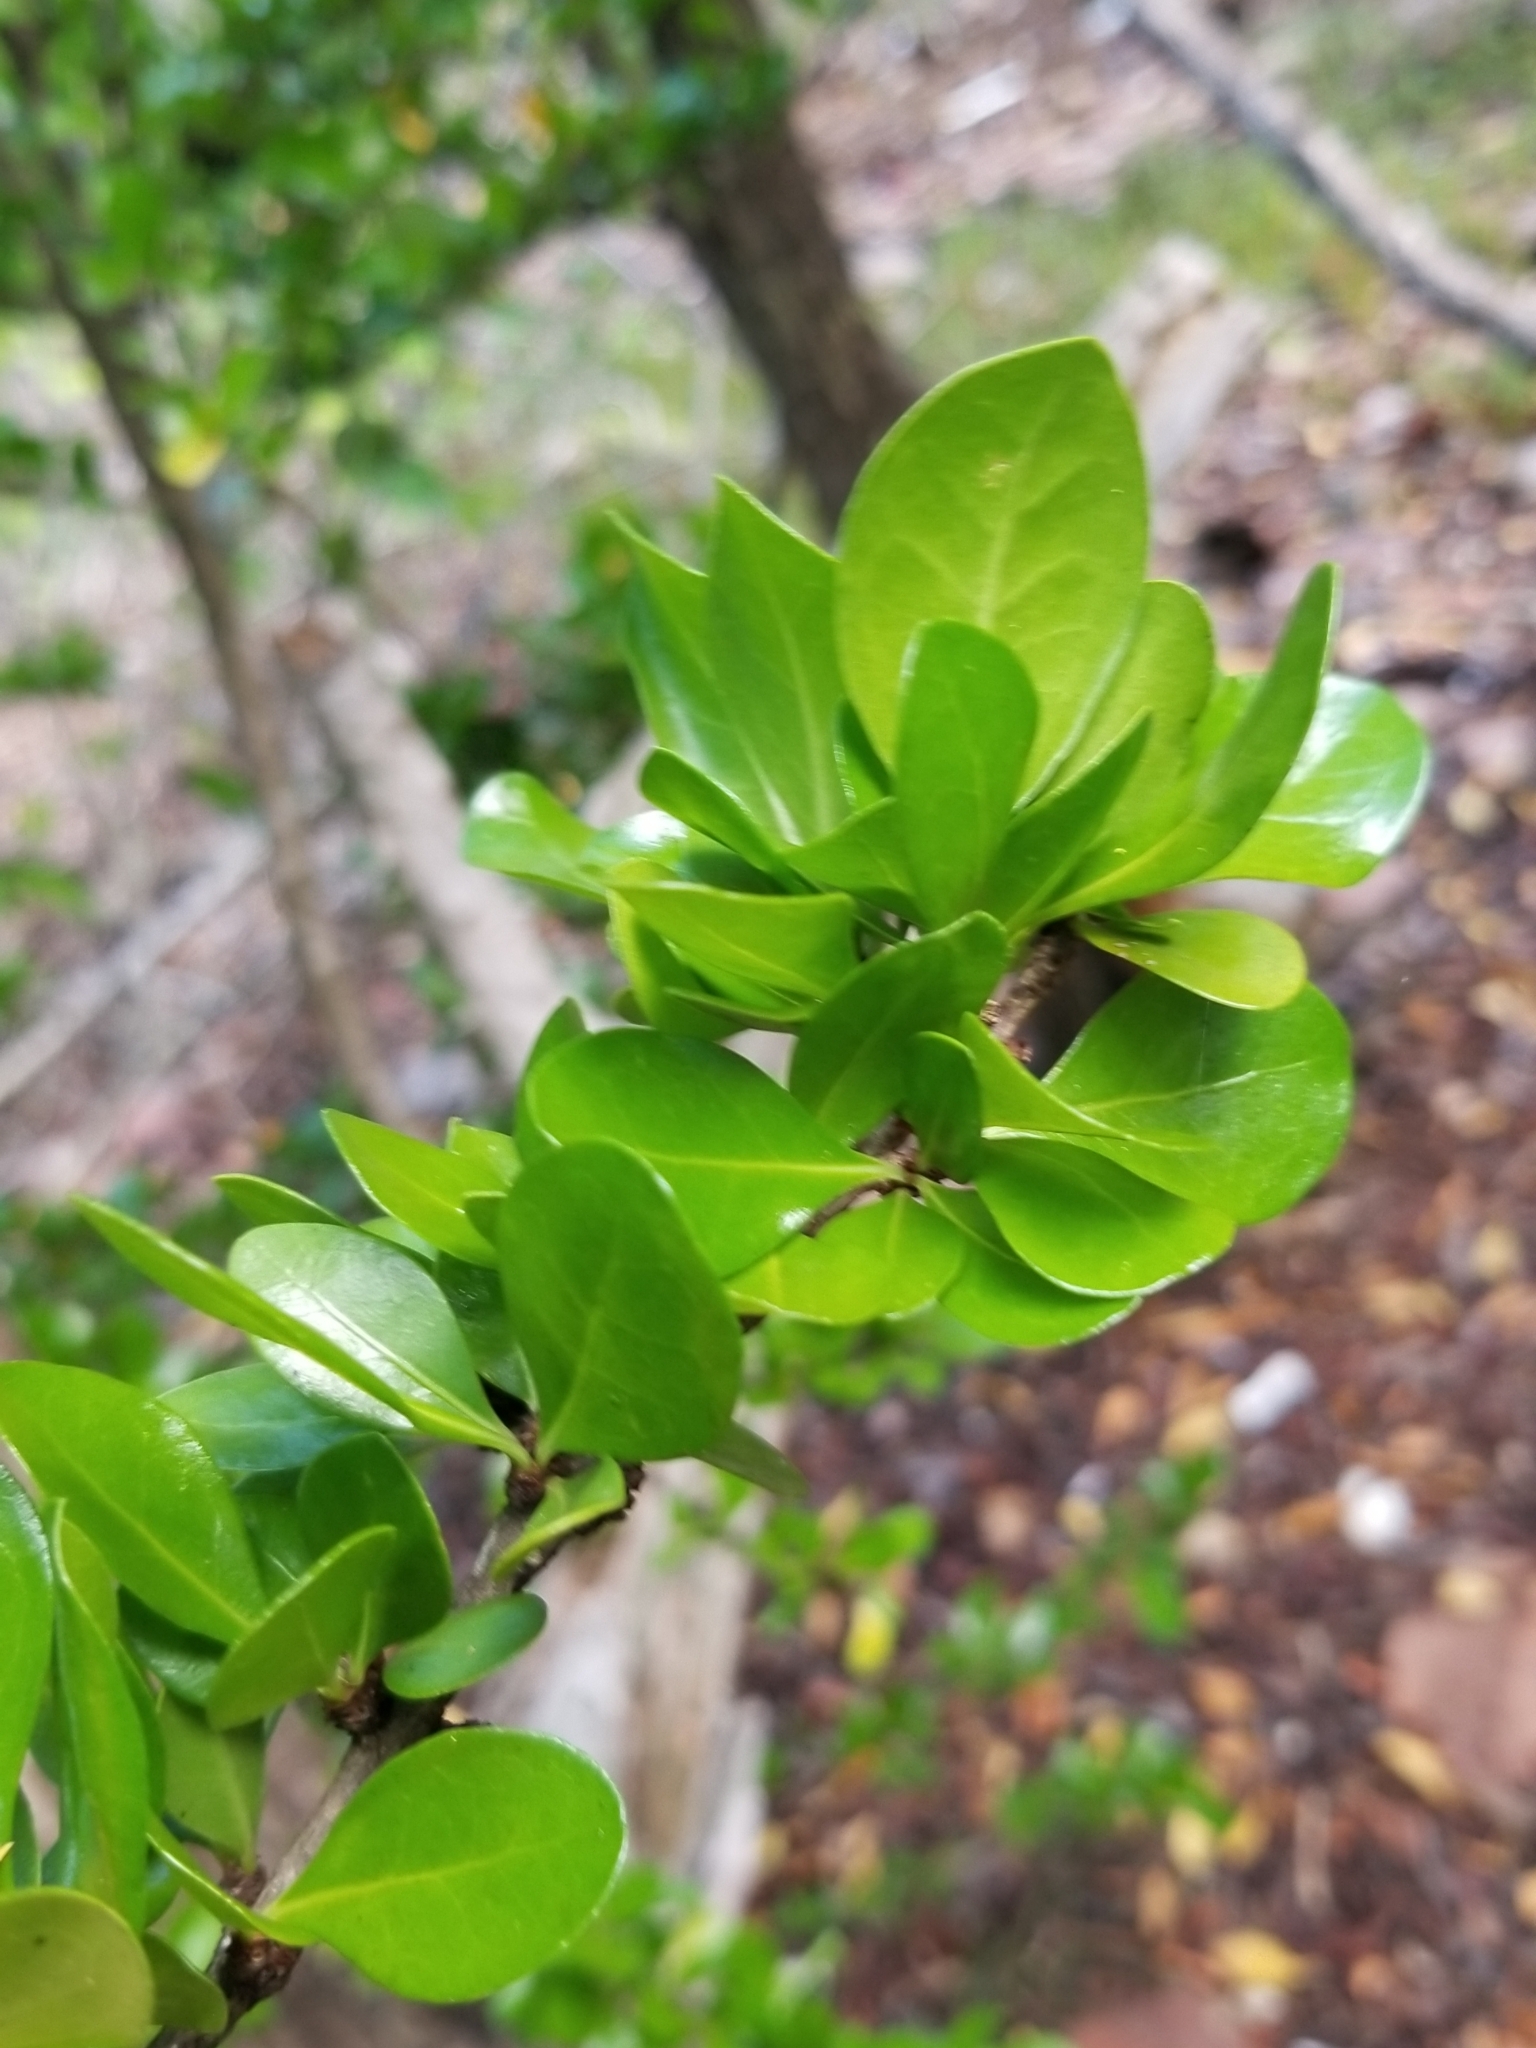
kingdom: Plantae
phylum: Tracheophyta
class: Magnoliopsida
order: Gentianales
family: Rubiaceae
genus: Randia
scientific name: Randia aculeata
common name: Inkberry
